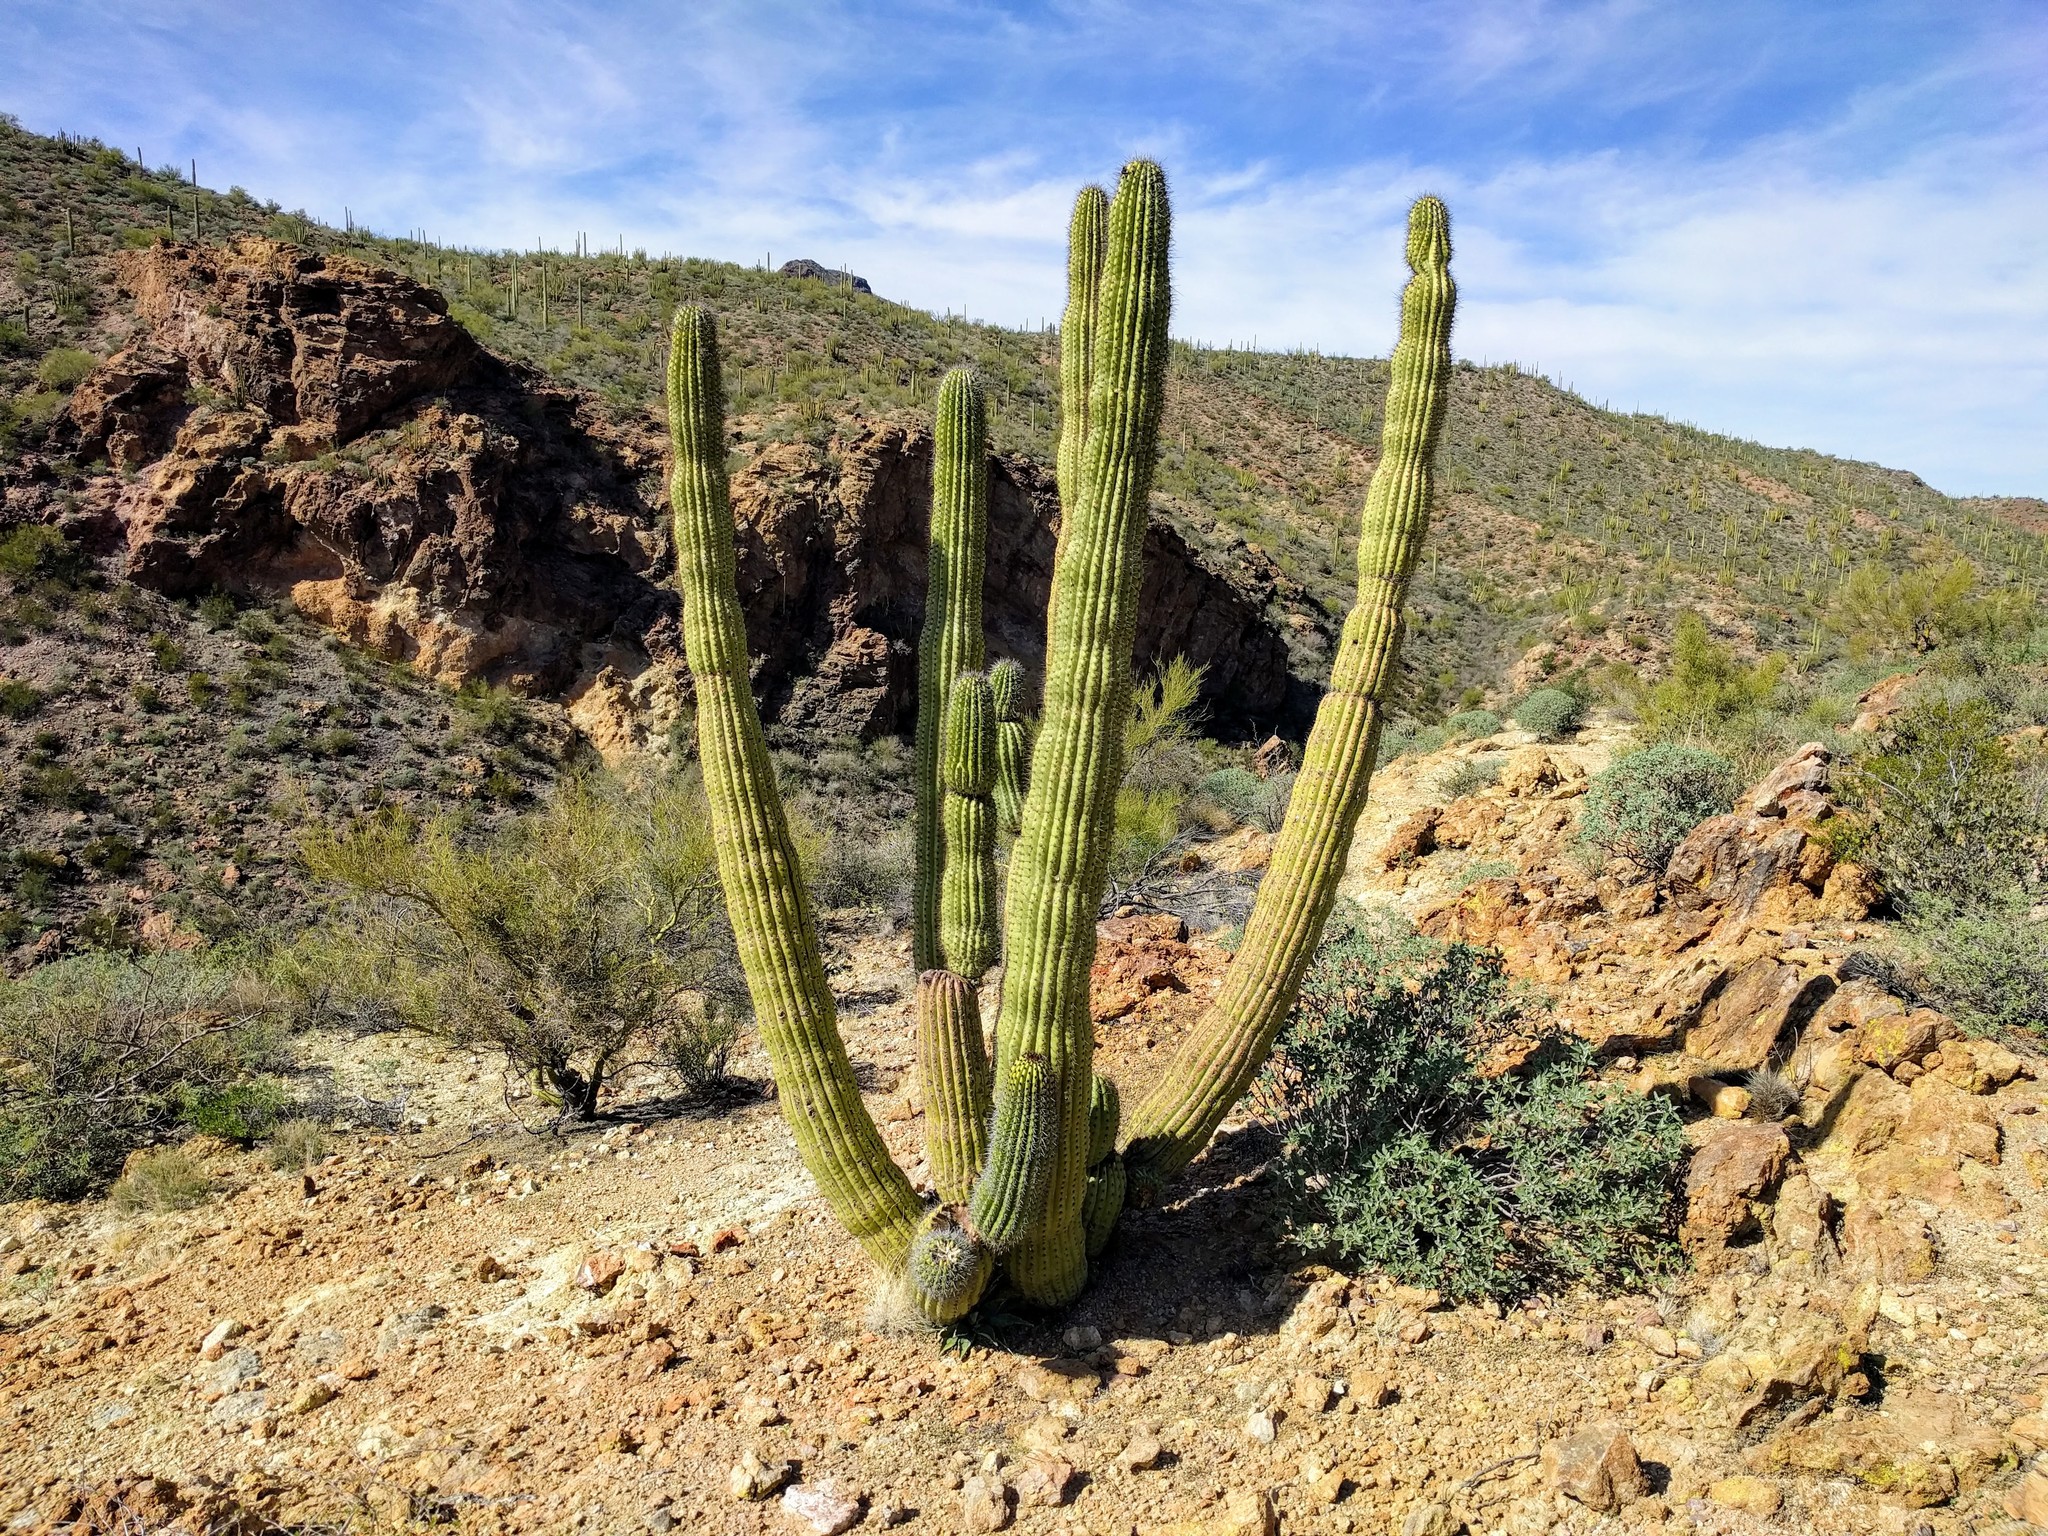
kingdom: Plantae
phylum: Tracheophyta
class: Magnoliopsida
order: Caryophyllales
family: Cactaceae
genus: Stenocereus
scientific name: Stenocereus thurberi
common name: Organ pipe cactus
